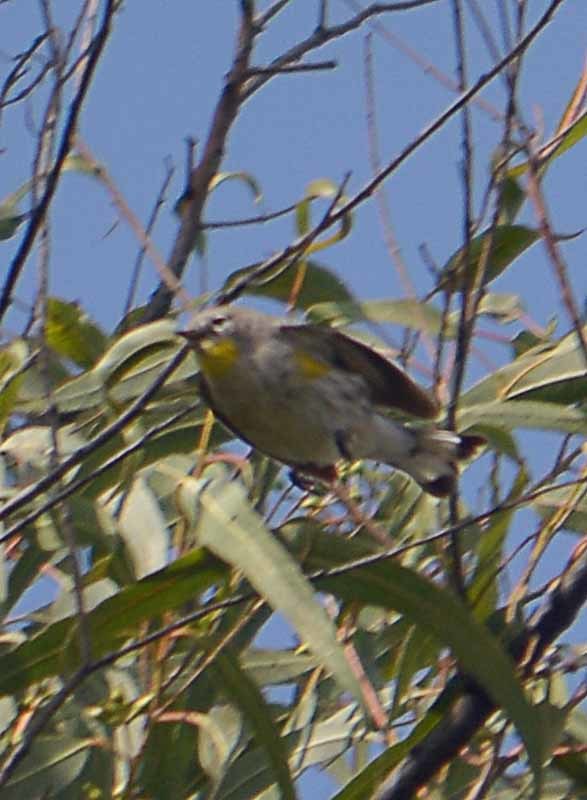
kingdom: Animalia
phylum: Chordata
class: Aves
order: Passeriformes
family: Parulidae
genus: Setophaga
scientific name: Setophaga coronata
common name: Myrtle warbler
